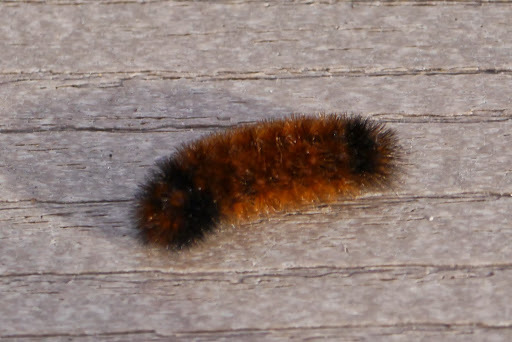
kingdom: Animalia
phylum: Arthropoda
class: Insecta
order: Lepidoptera
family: Erebidae
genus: Pyrrharctia
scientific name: Pyrrharctia isabella
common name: Isabella tiger moth
